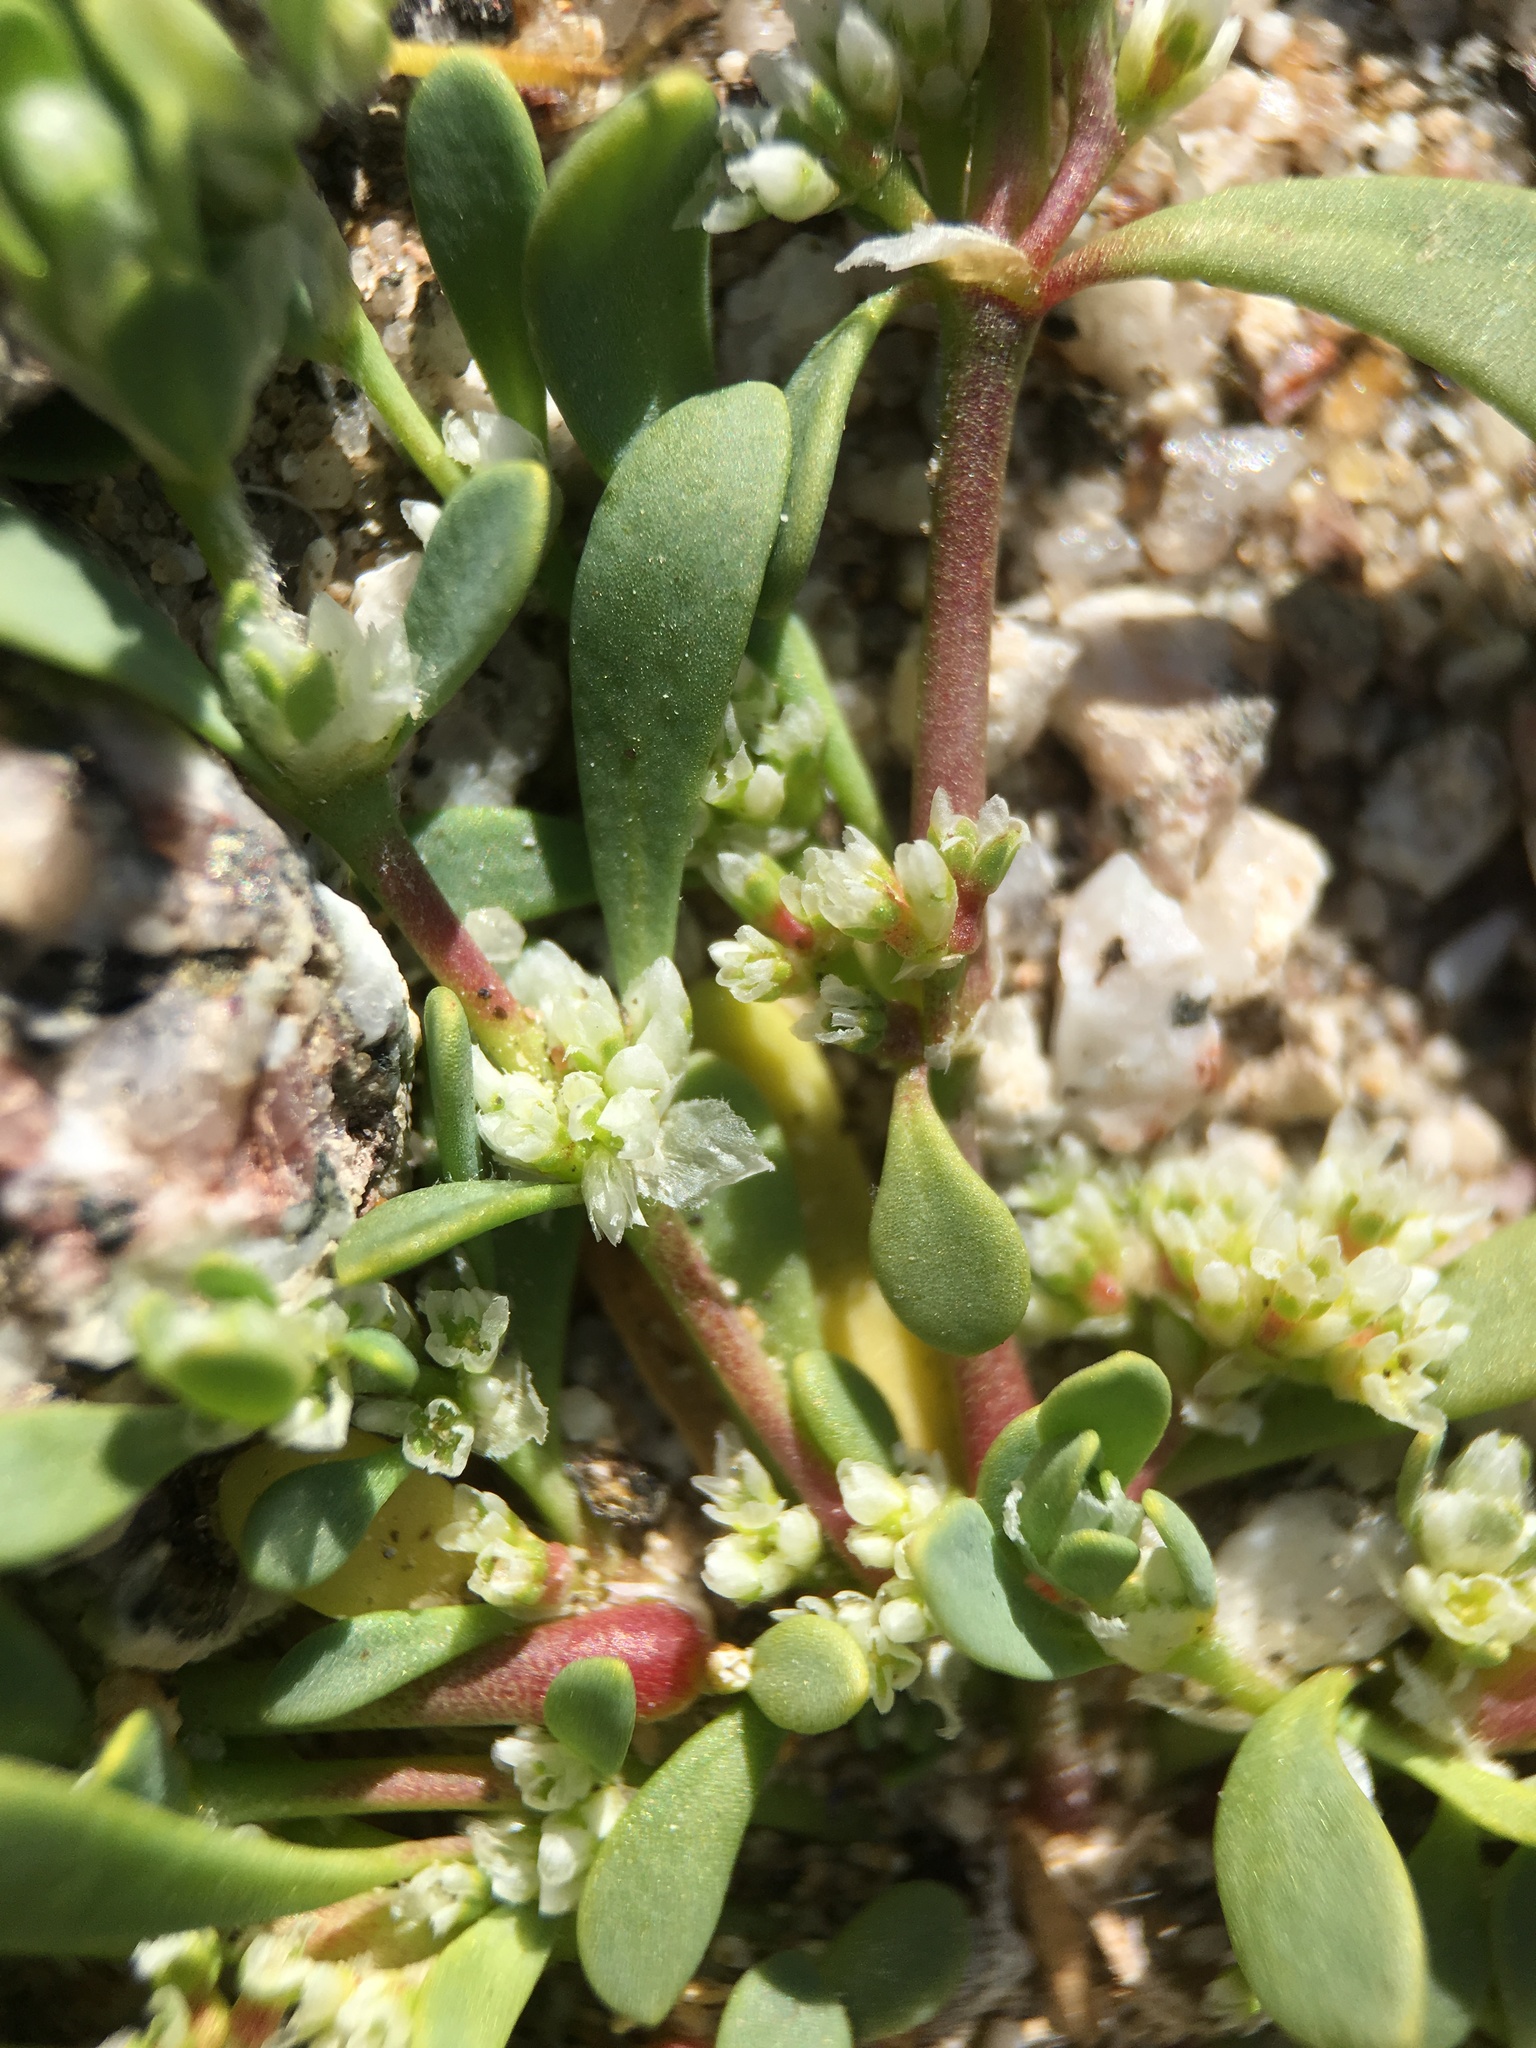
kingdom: Plantae
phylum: Tracheophyta
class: Magnoliopsida
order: Caryophyllales
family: Caryophyllaceae
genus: Achyronychia
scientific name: Achyronychia cooperi
